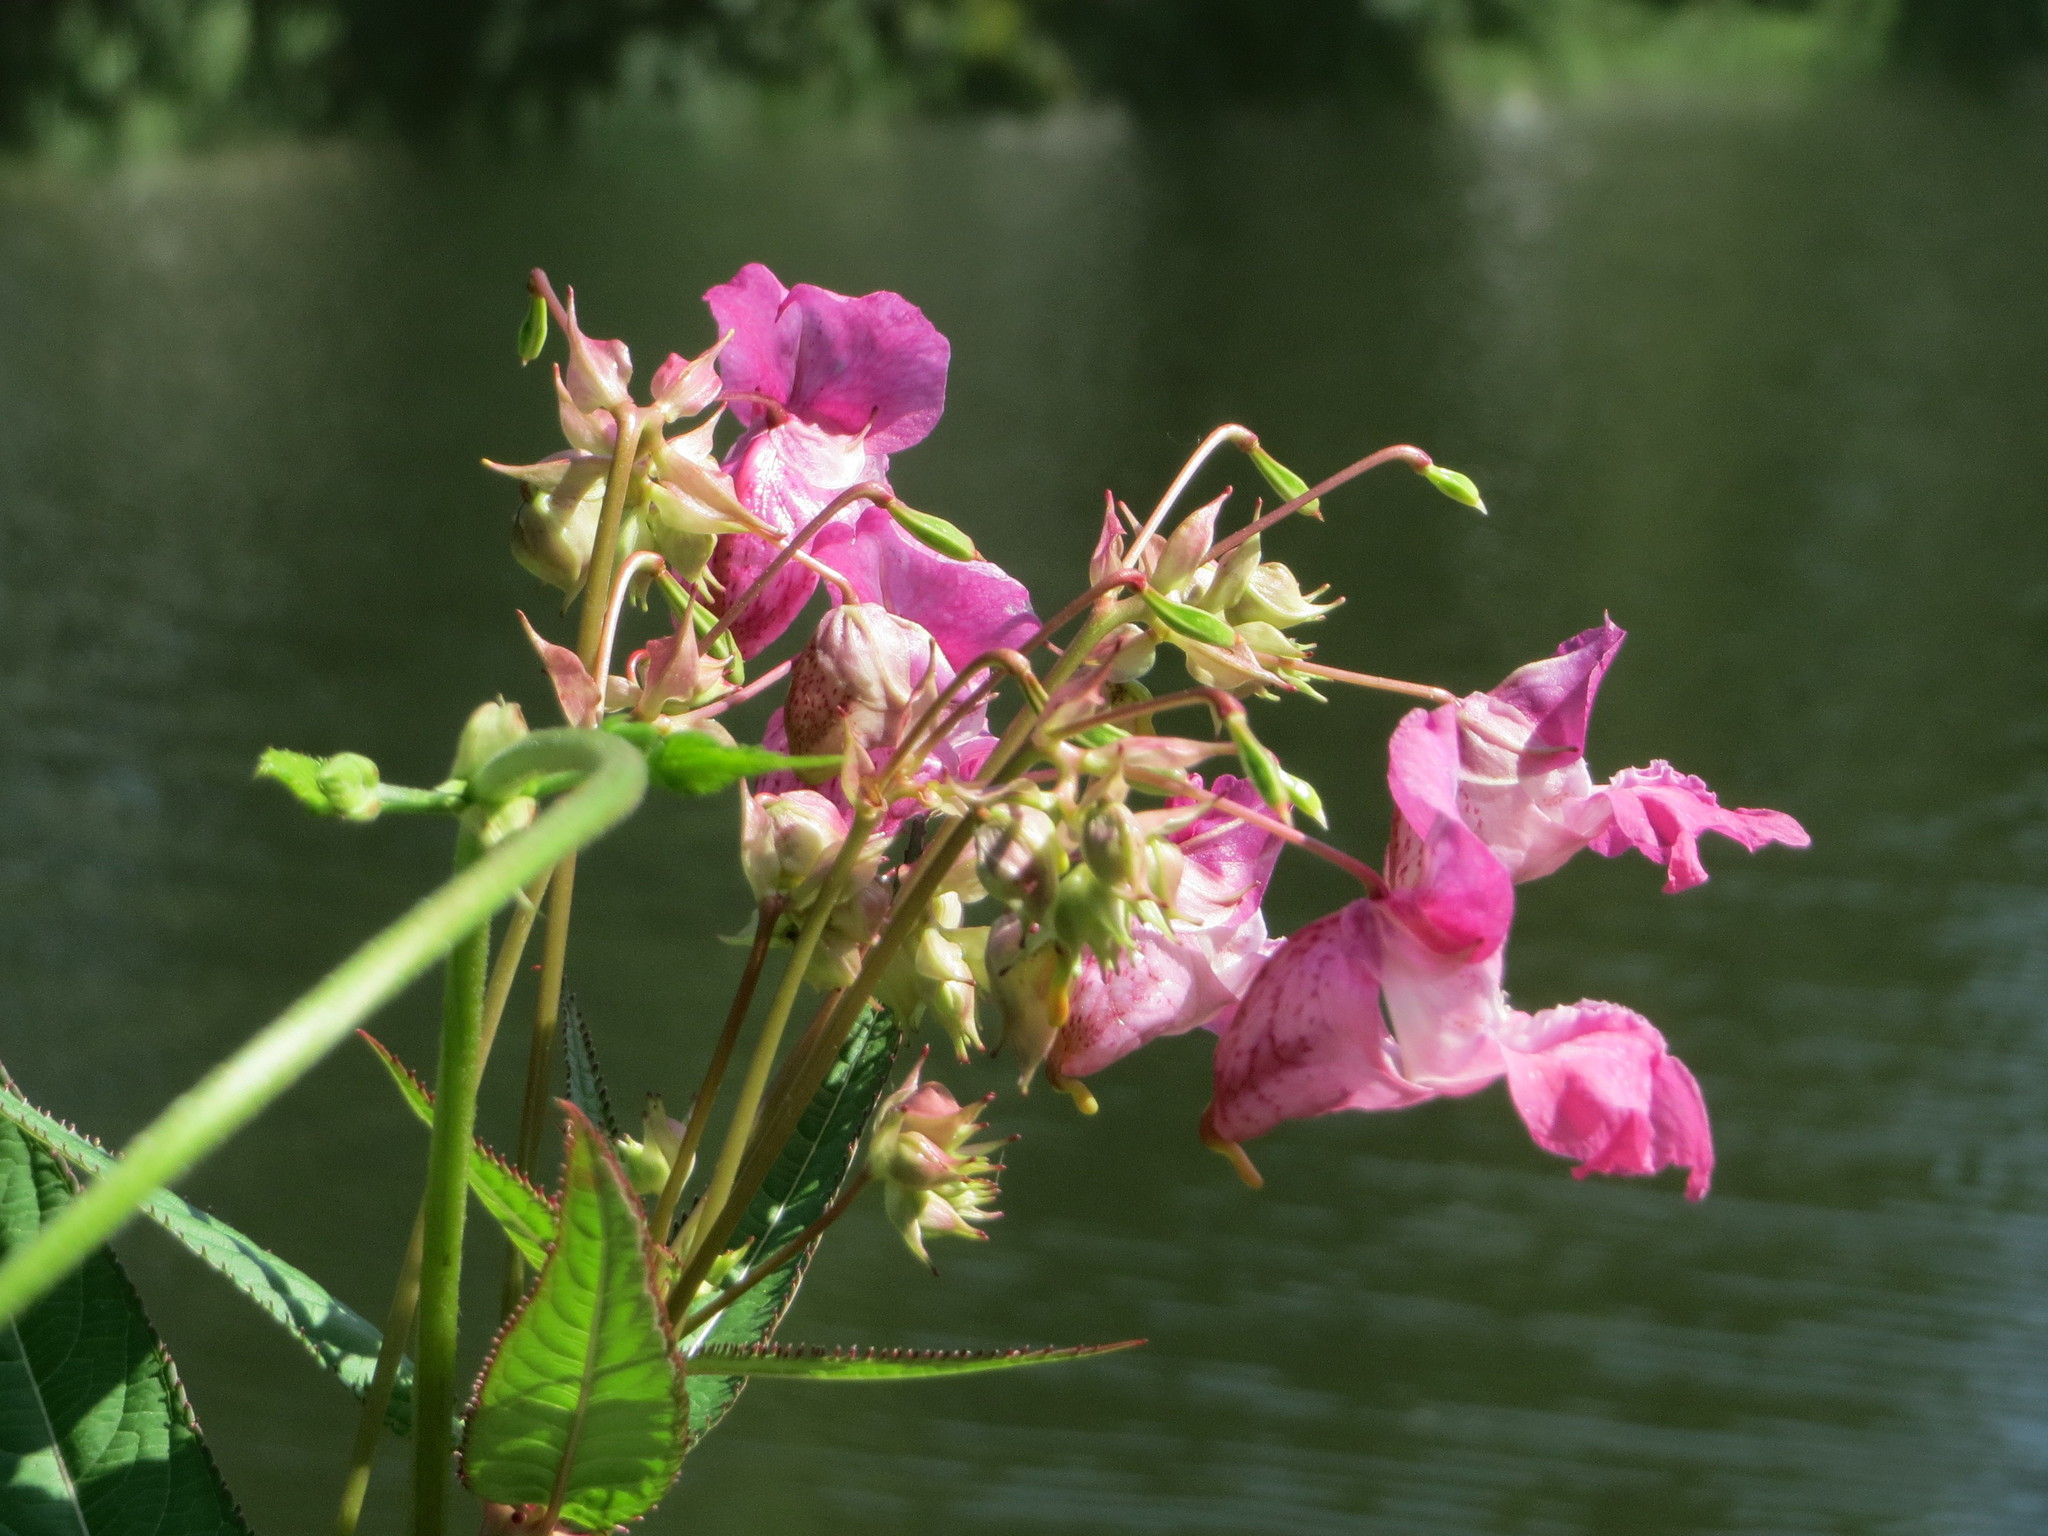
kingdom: Plantae
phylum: Tracheophyta
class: Magnoliopsida
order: Ericales
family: Balsaminaceae
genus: Impatiens
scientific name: Impatiens glandulifera
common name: Himalayan balsam
